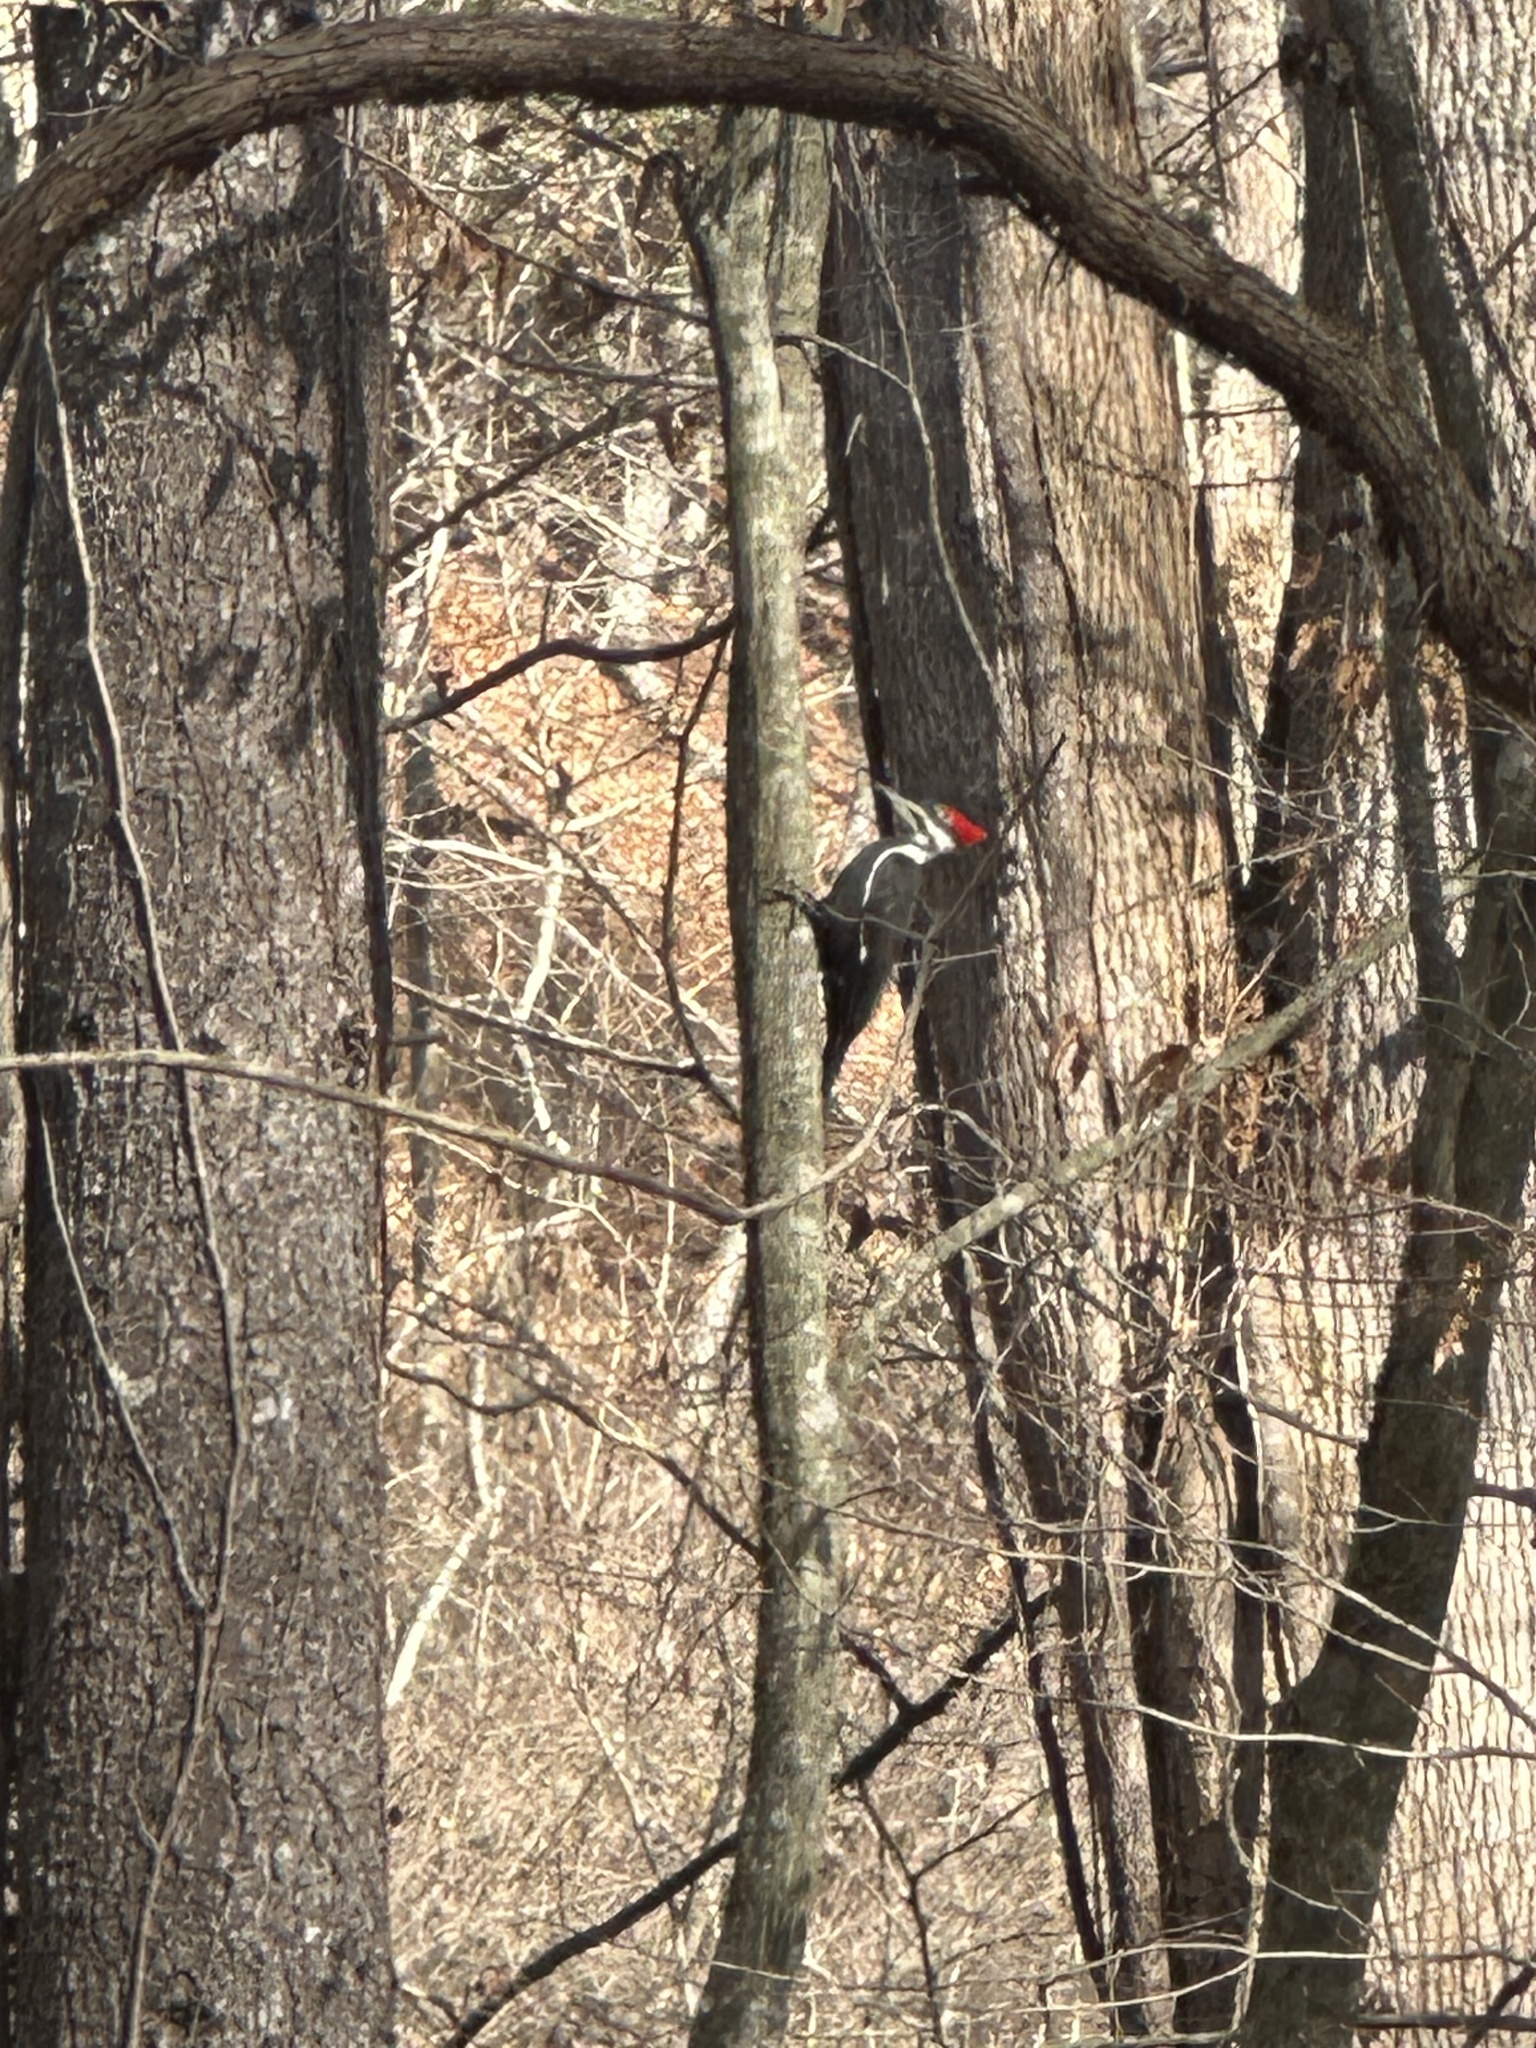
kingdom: Animalia
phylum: Chordata
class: Aves
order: Piciformes
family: Picidae
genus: Dryocopus
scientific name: Dryocopus pileatus
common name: Pileated woodpecker
